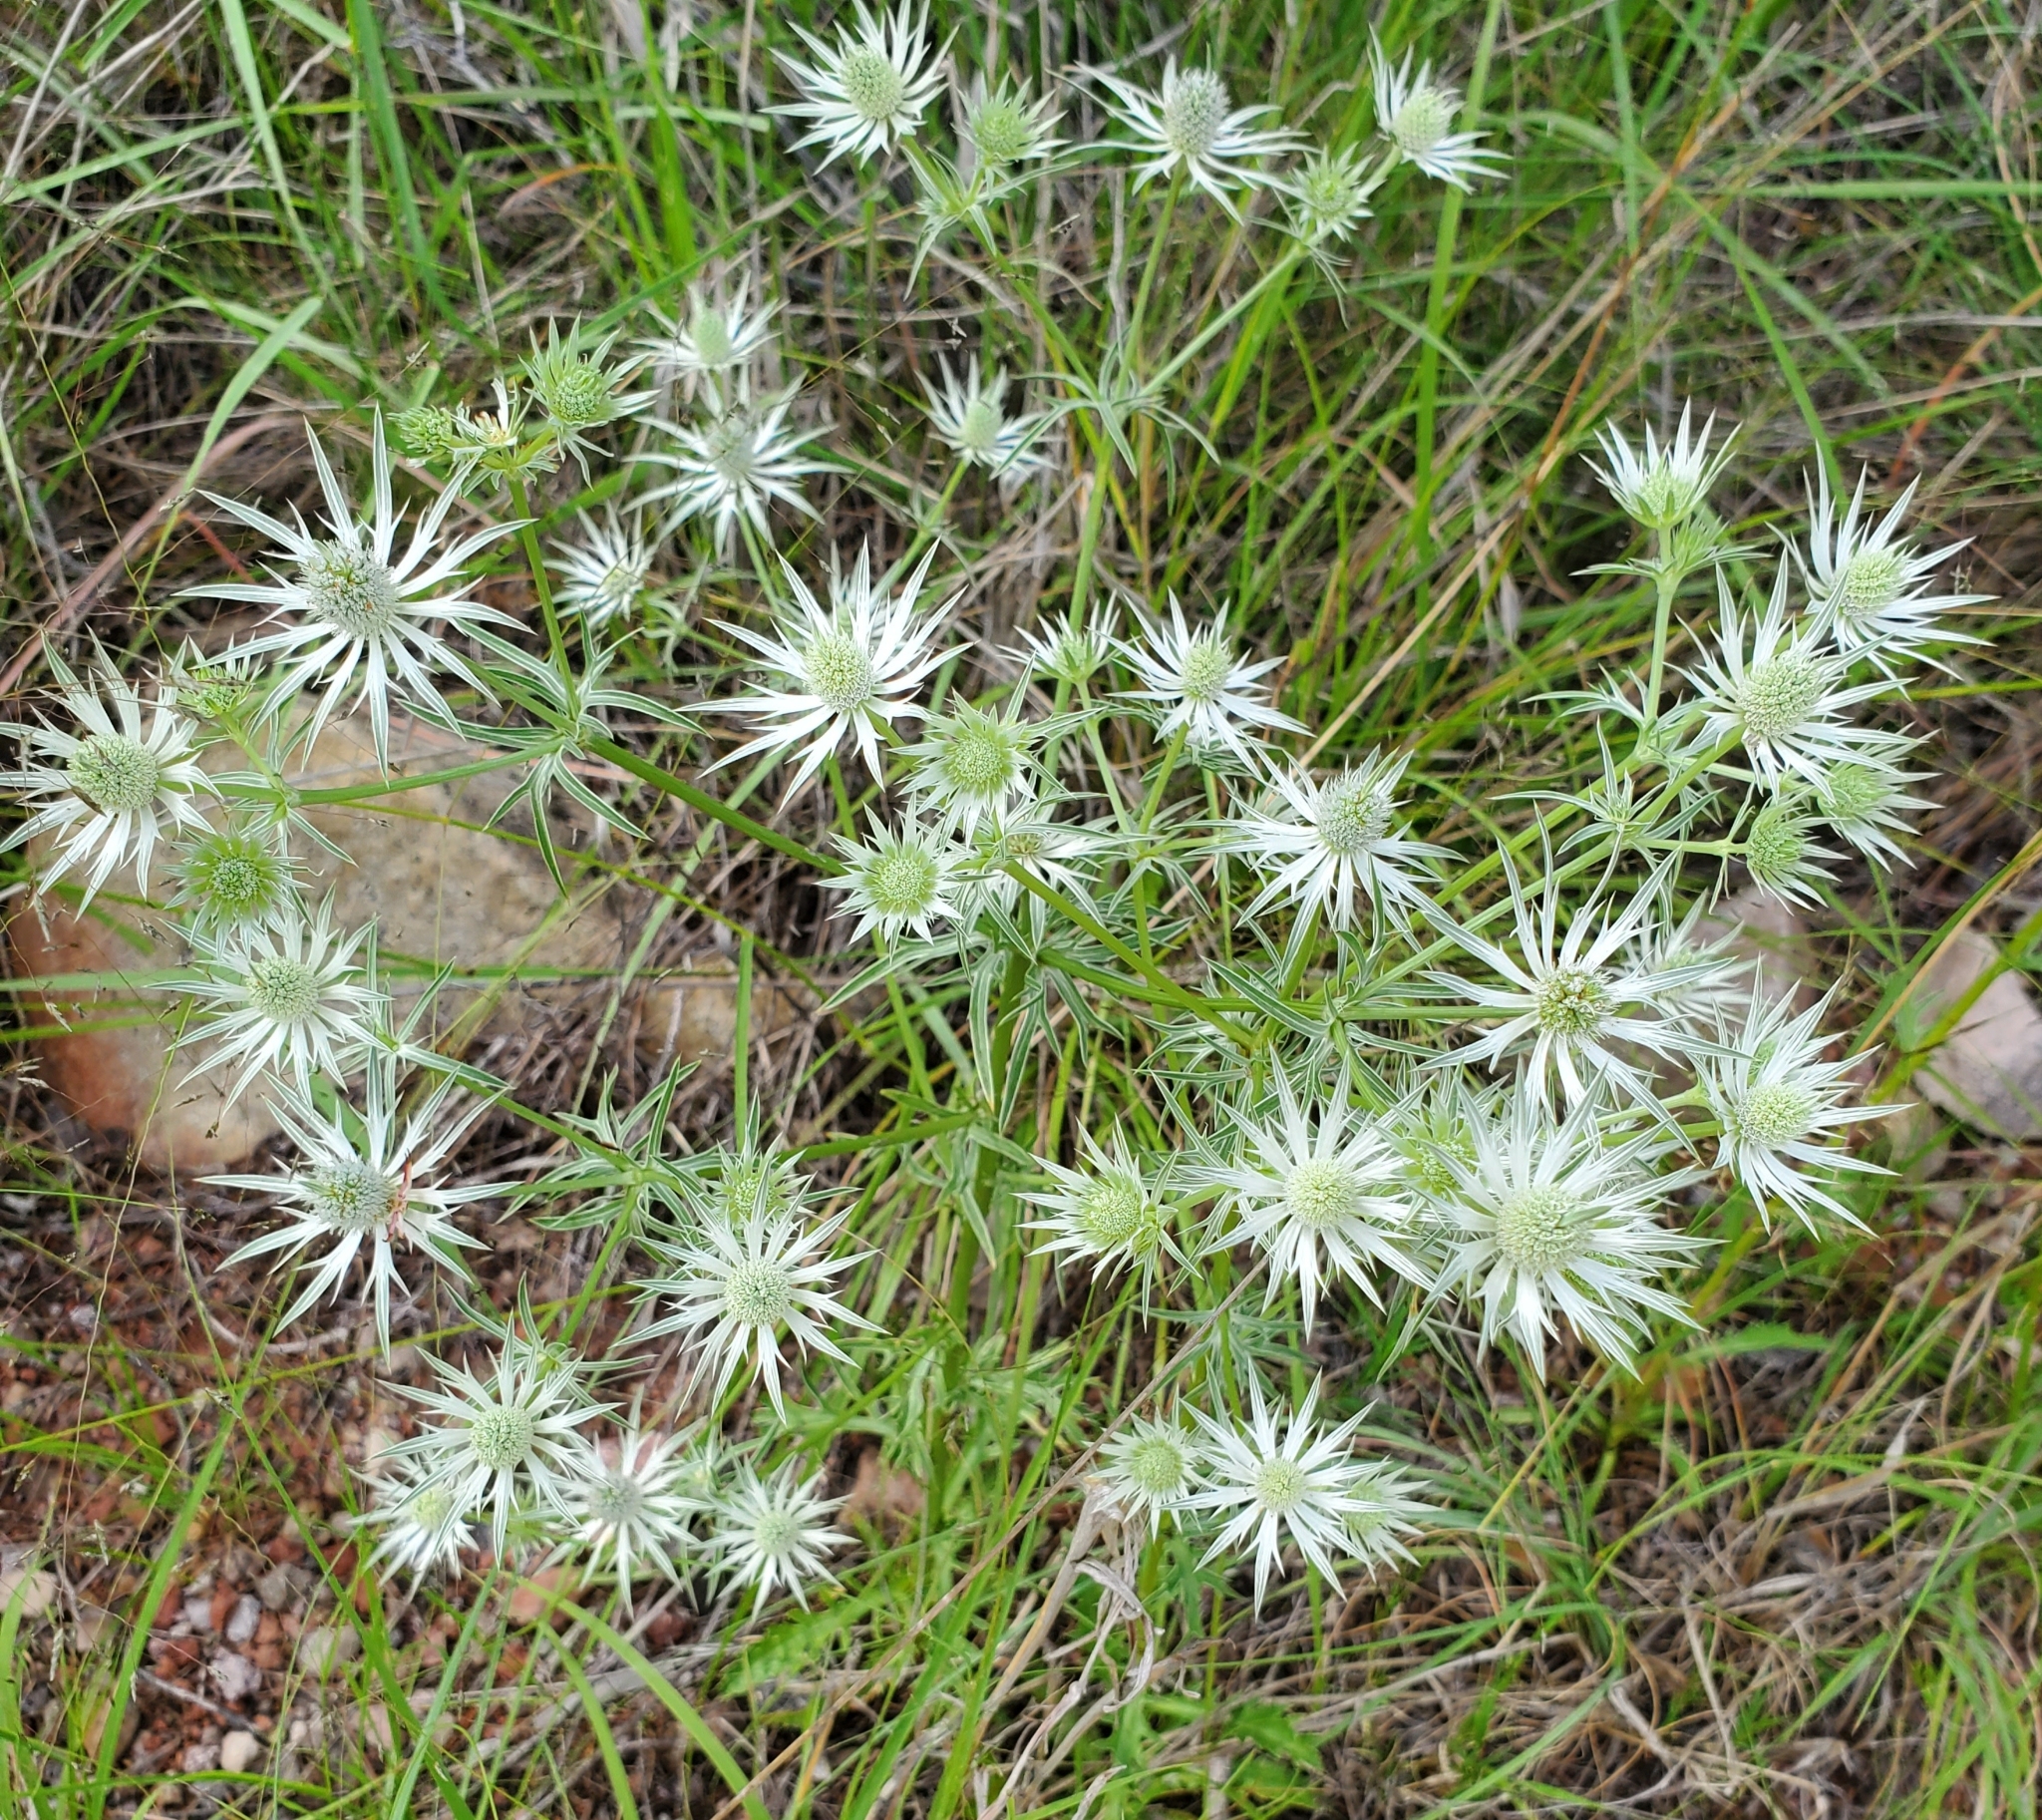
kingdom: Plantae
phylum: Tracheophyta
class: Magnoliopsida
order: Apiales
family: Apiaceae
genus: Eryngium
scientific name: Eryngium heterophyllum
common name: Mexican thistle
